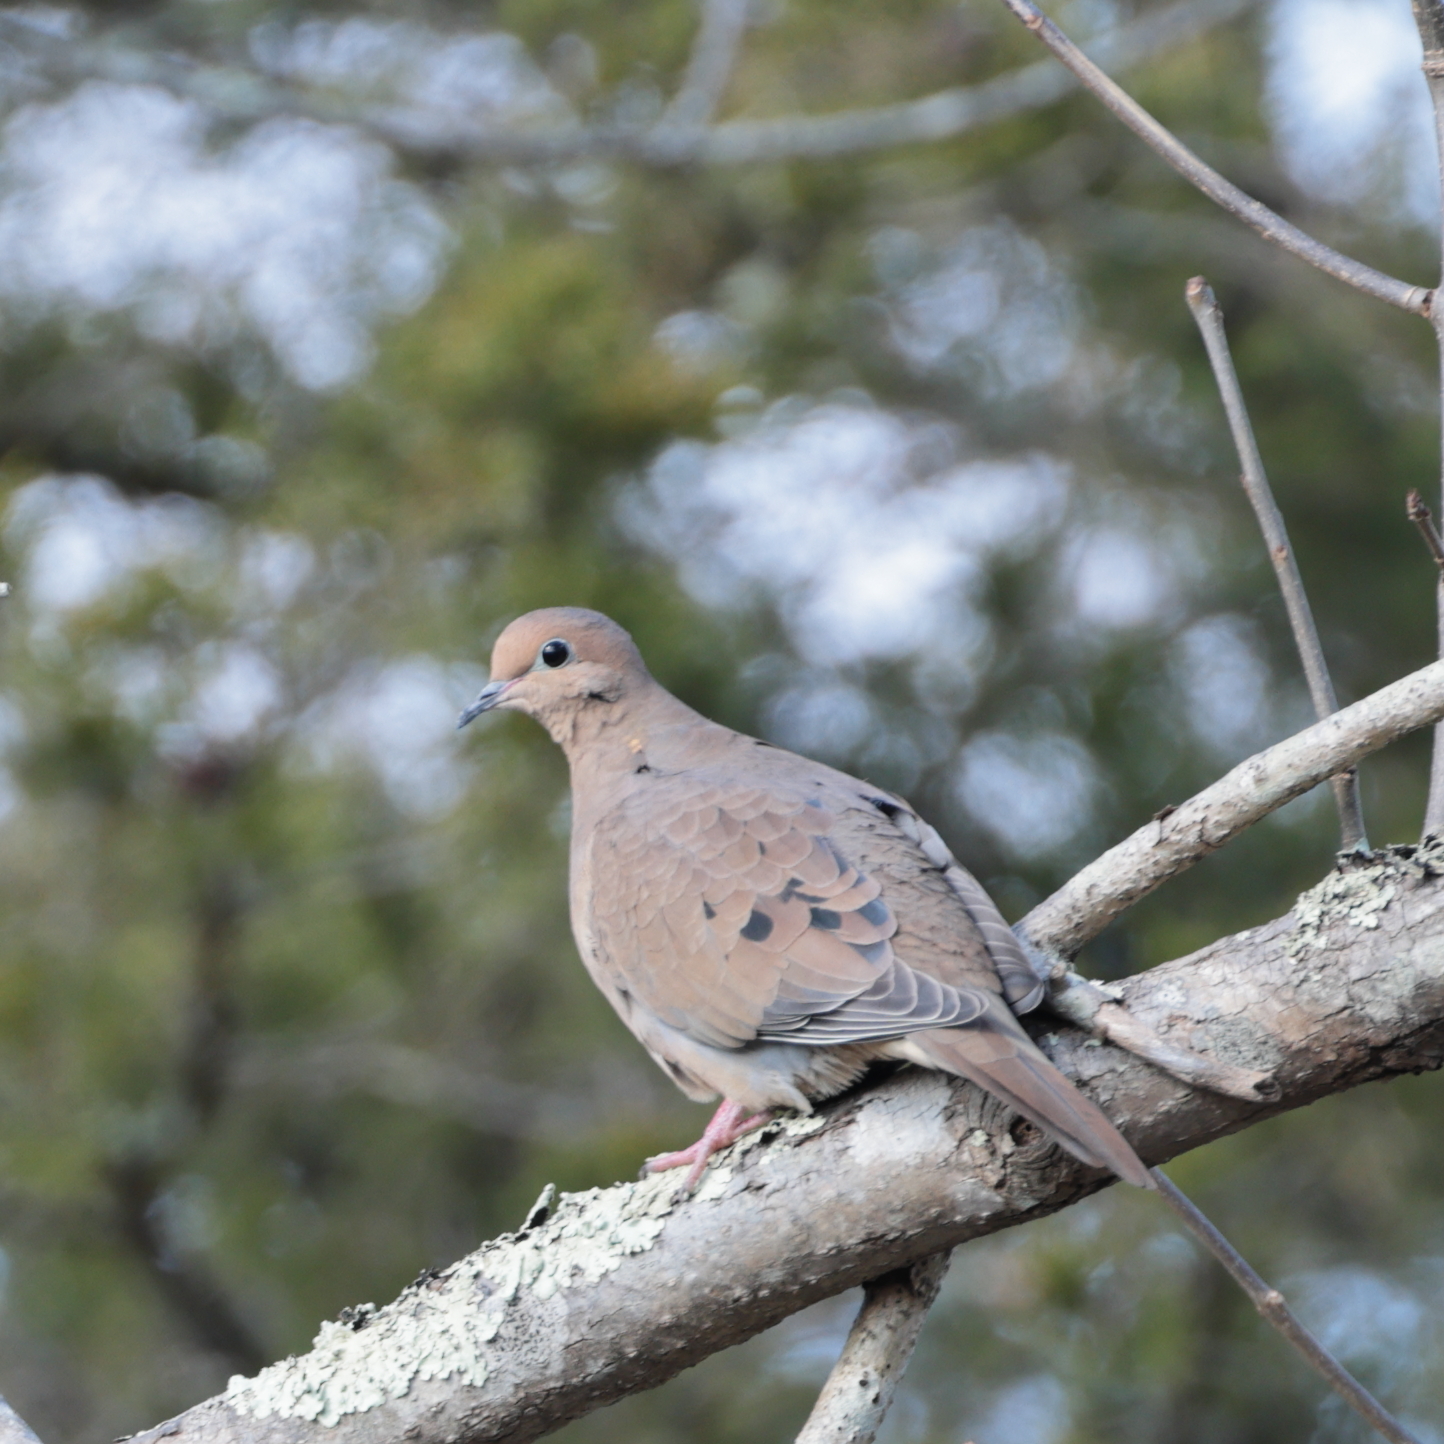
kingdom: Animalia
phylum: Chordata
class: Aves
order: Columbiformes
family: Columbidae
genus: Zenaida
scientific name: Zenaida macroura
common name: Mourning dove
